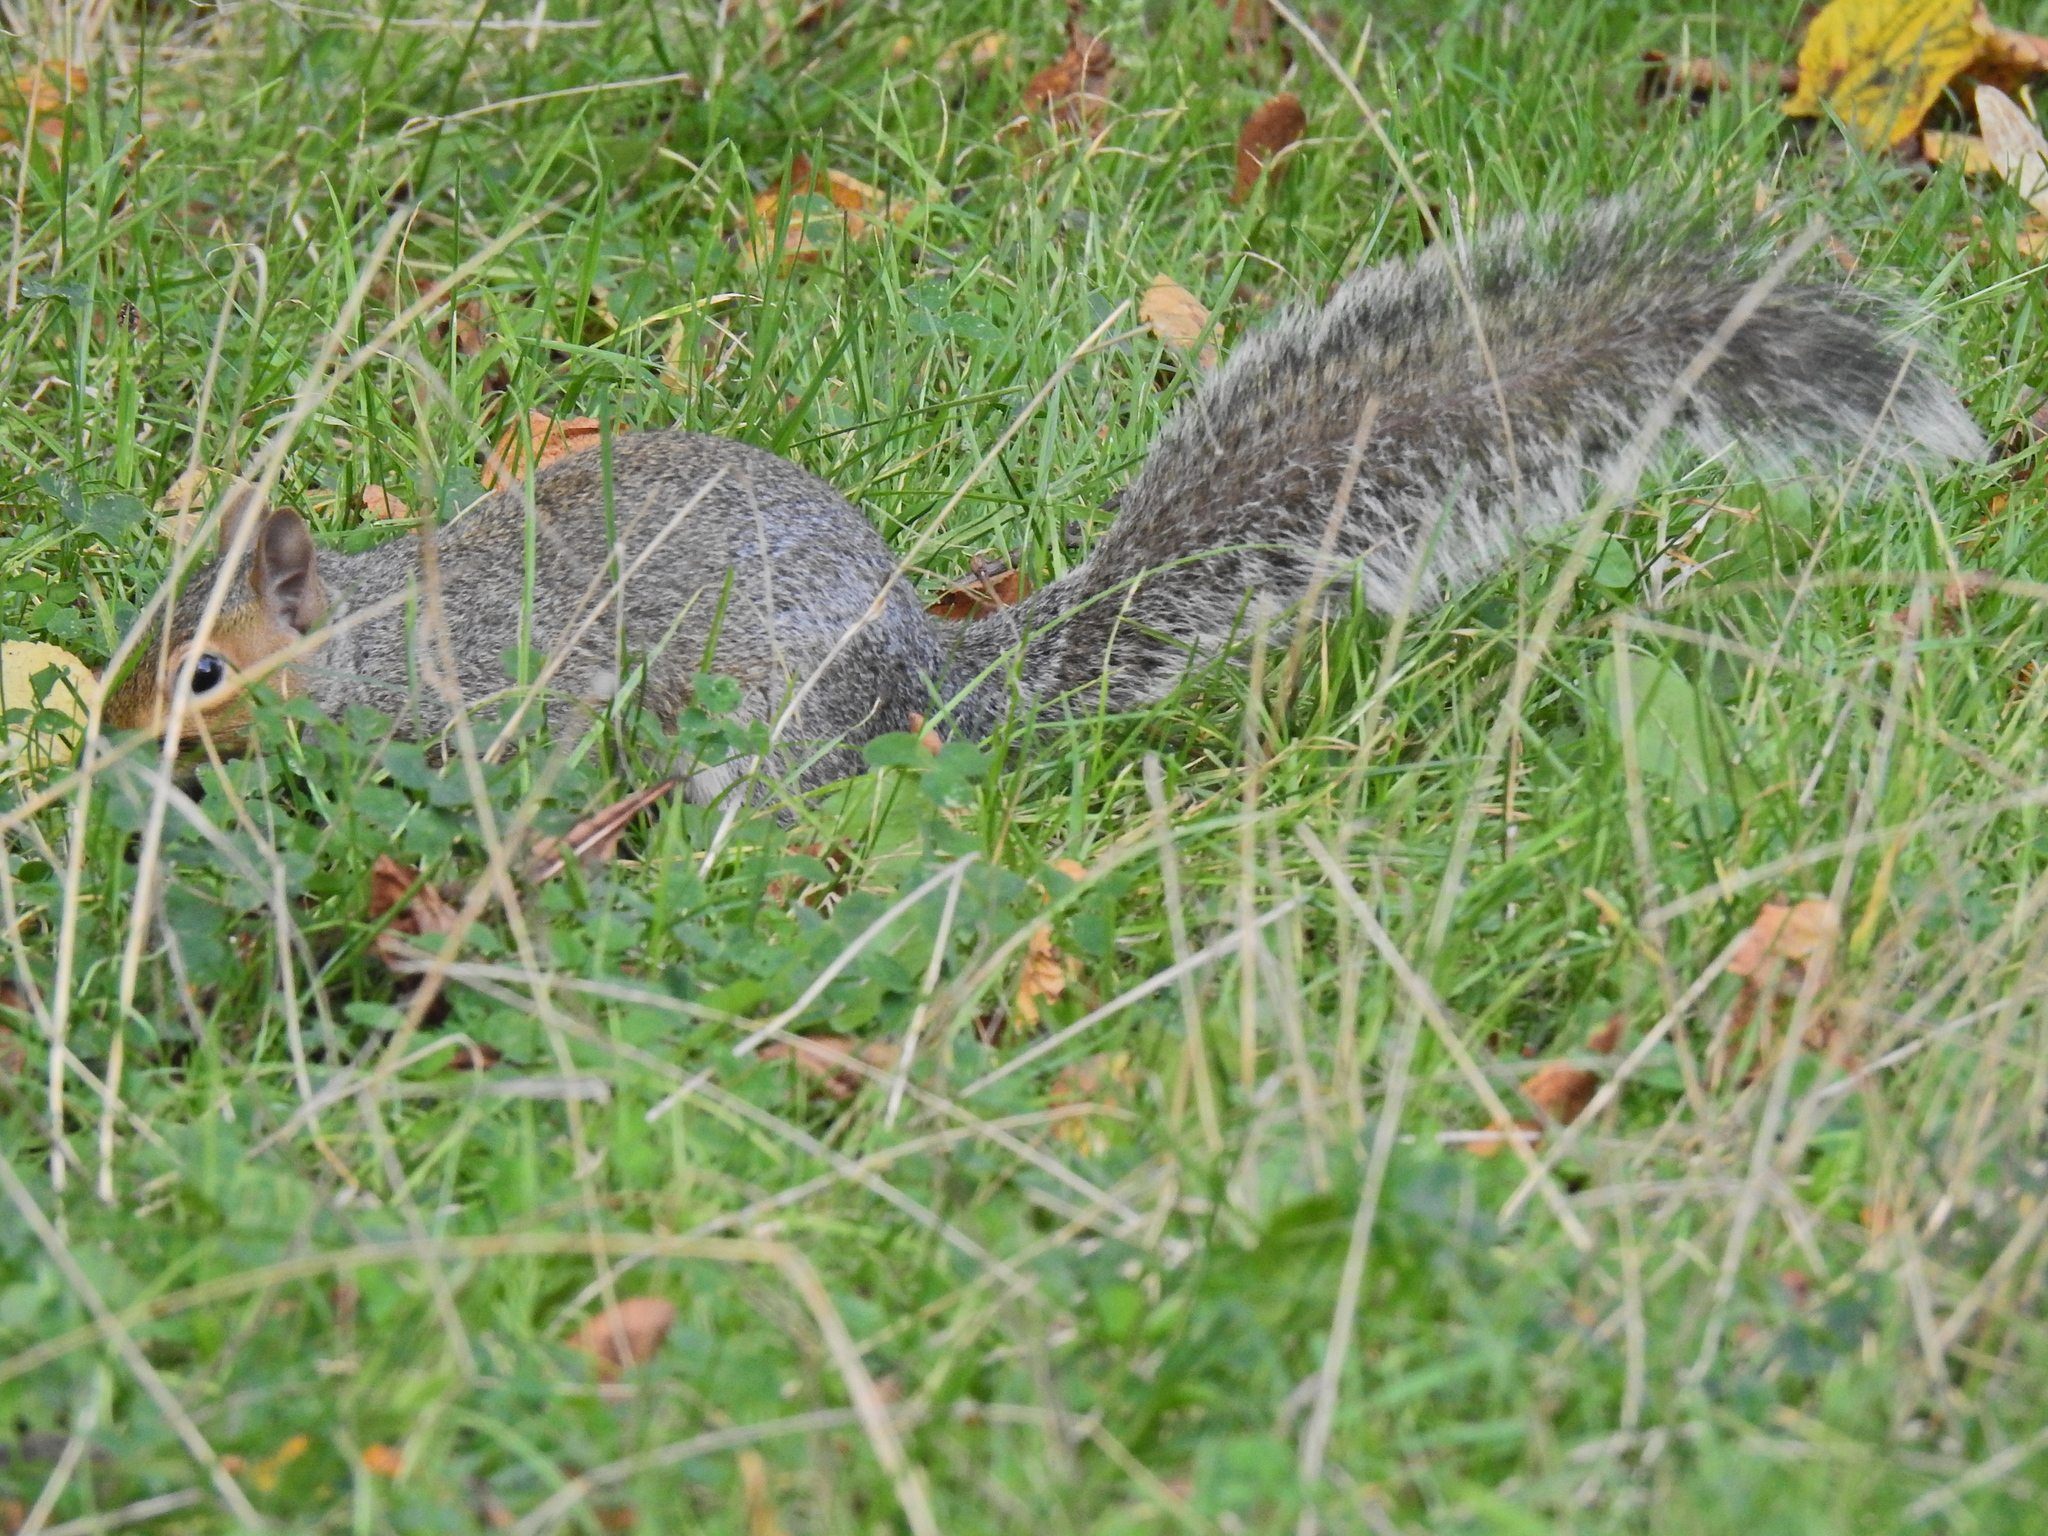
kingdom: Animalia
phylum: Chordata
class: Mammalia
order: Rodentia
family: Sciuridae
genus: Sciurus
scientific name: Sciurus carolinensis
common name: Eastern gray squirrel
